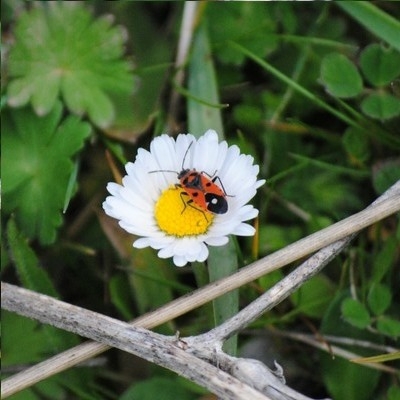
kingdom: Animalia
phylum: Arthropoda
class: Insecta
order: Hemiptera
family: Lygaeidae
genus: Melanocoryphus
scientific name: Melanocoryphus albomaculatus
